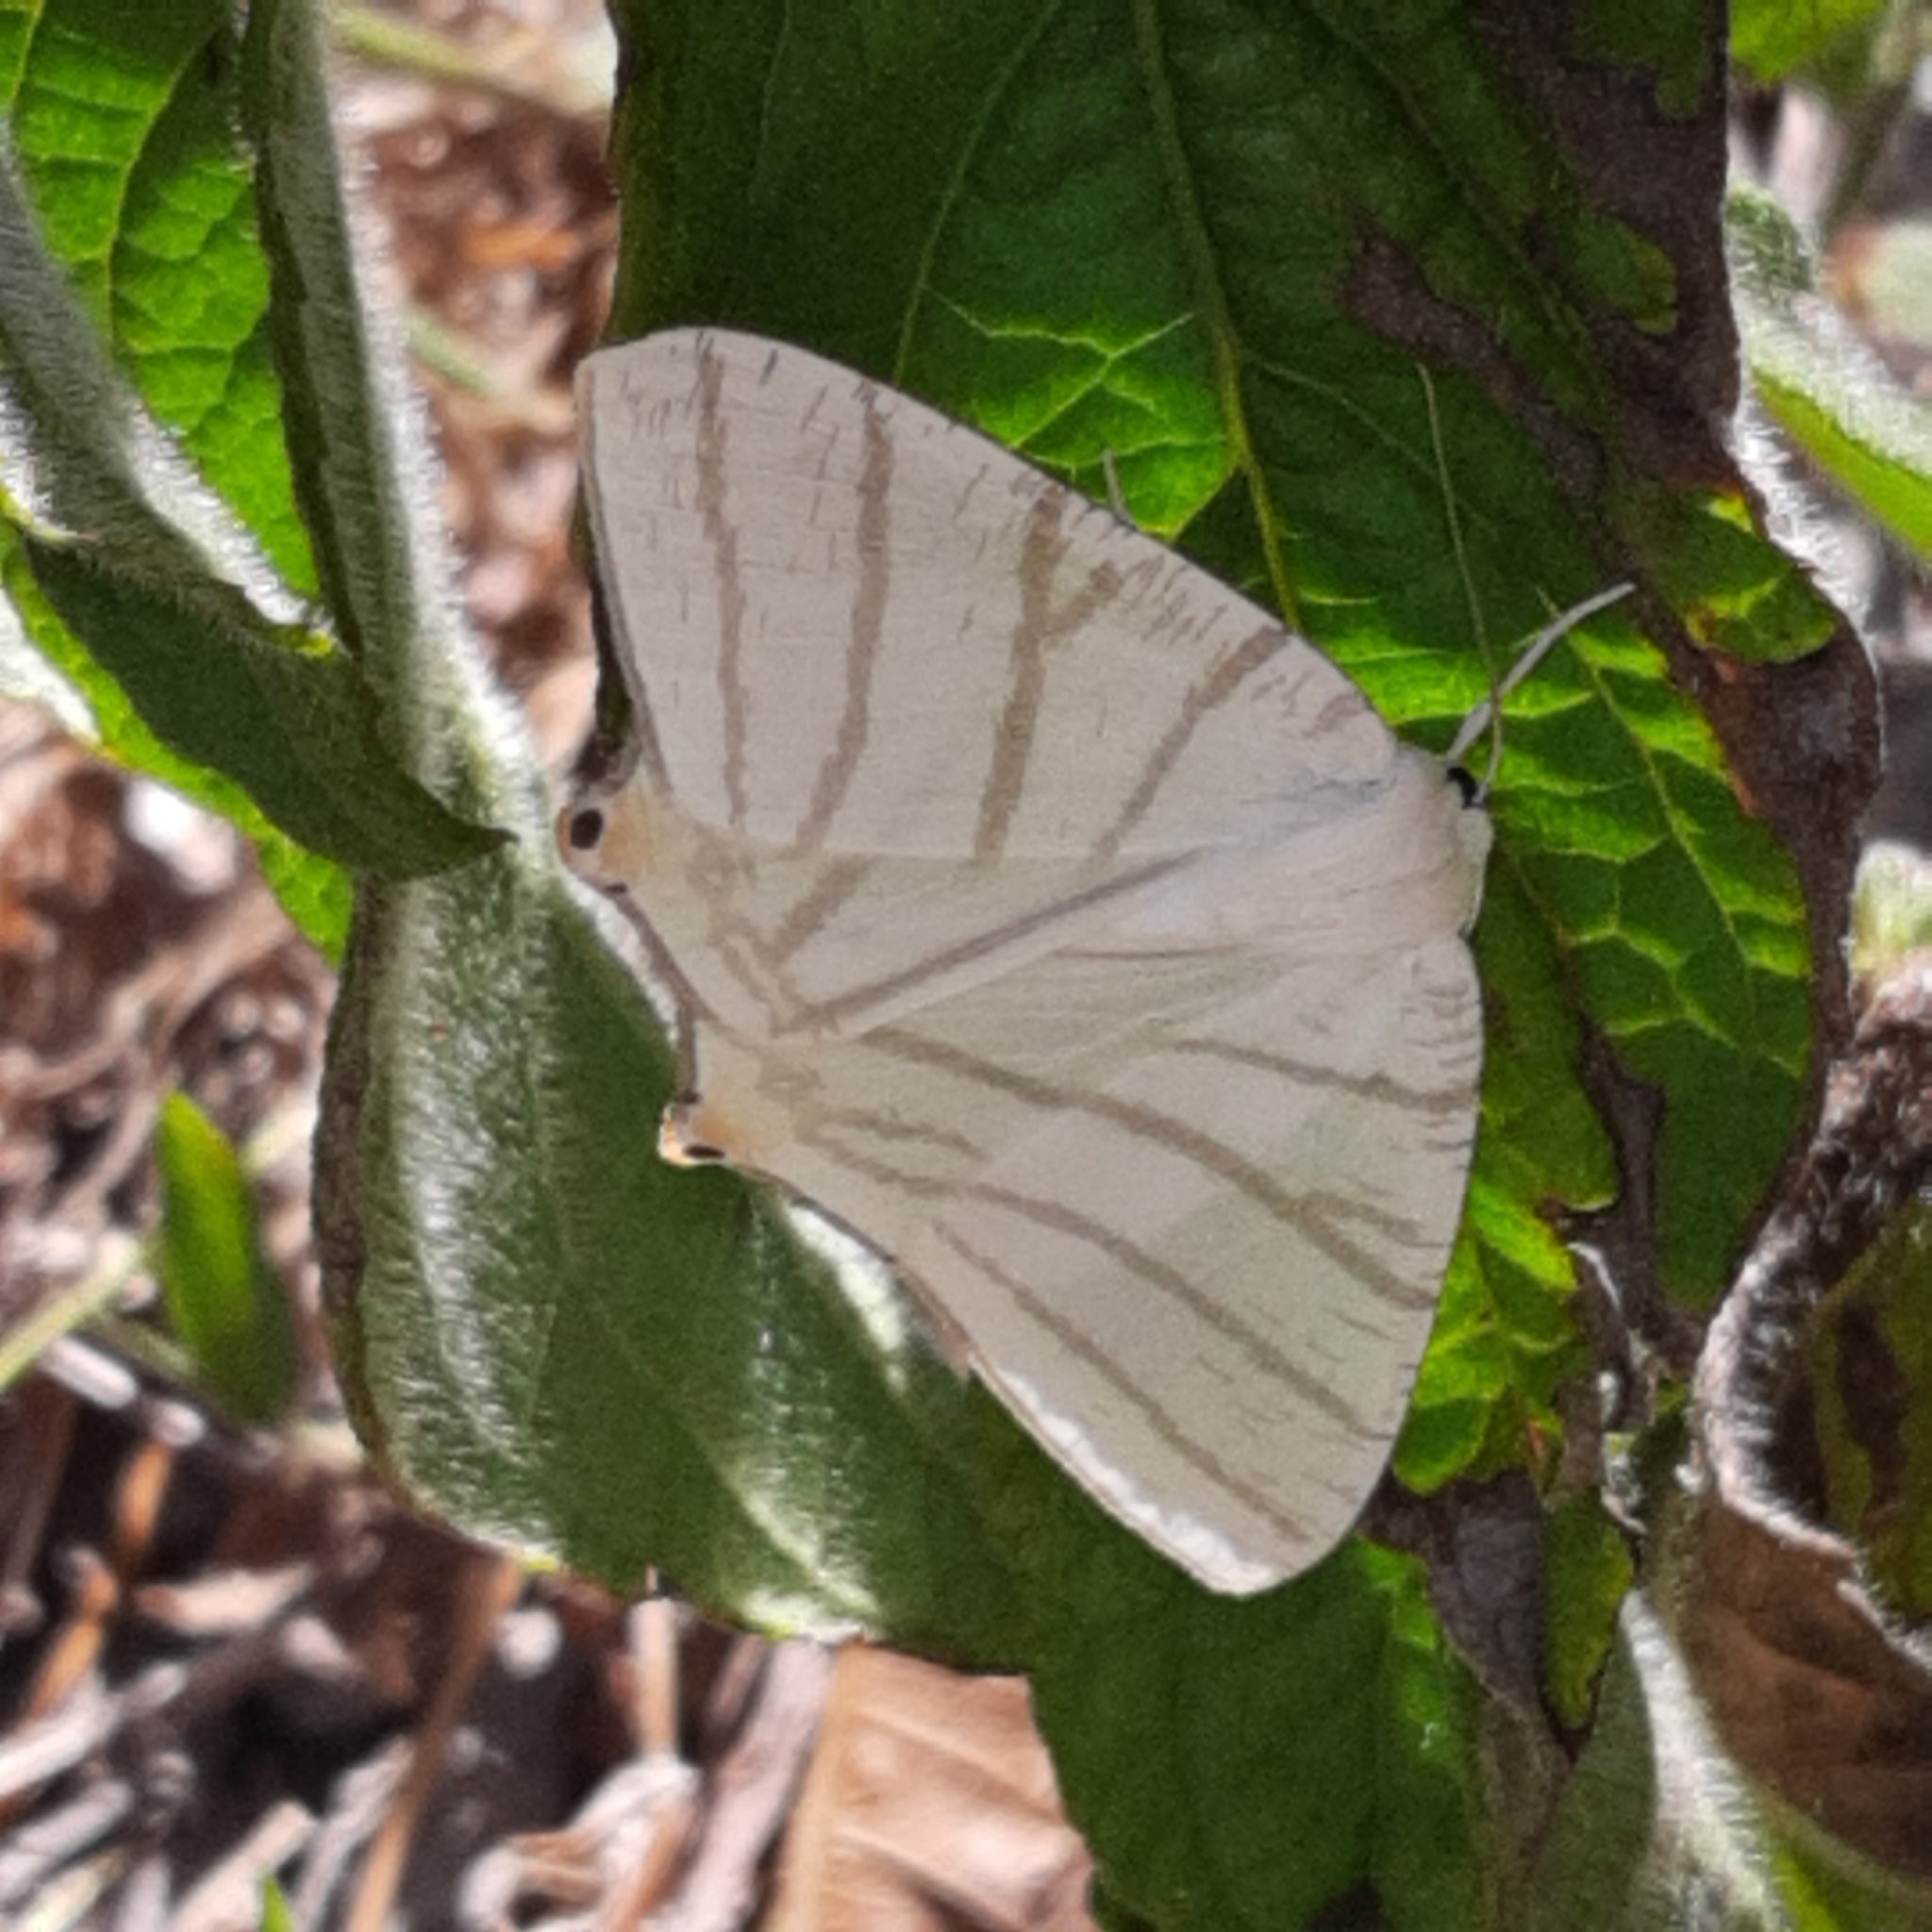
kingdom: Animalia
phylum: Arthropoda
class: Insecta
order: Lepidoptera
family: Geometridae
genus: Brachurapteryx
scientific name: Brachurapteryx tesserata
